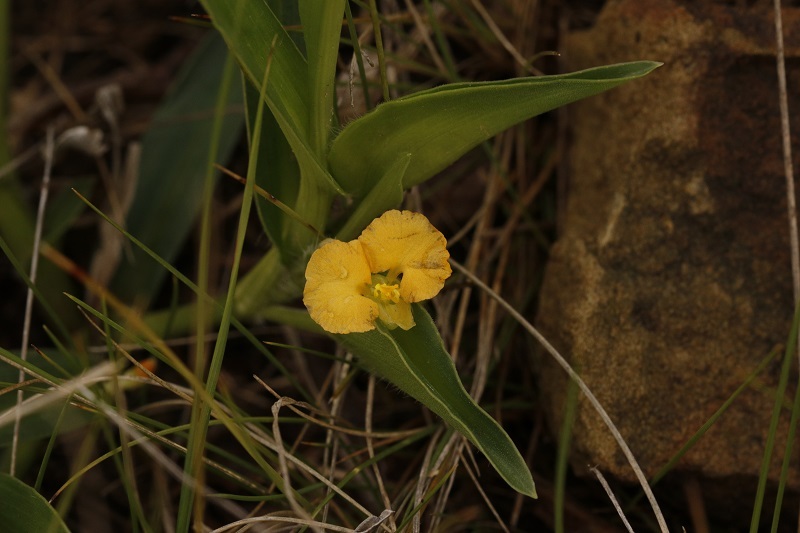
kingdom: Plantae
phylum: Tracheophyta
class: Liliopsida
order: Commelinales
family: Commelinaceae
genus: Commelina
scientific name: Commelina africana
